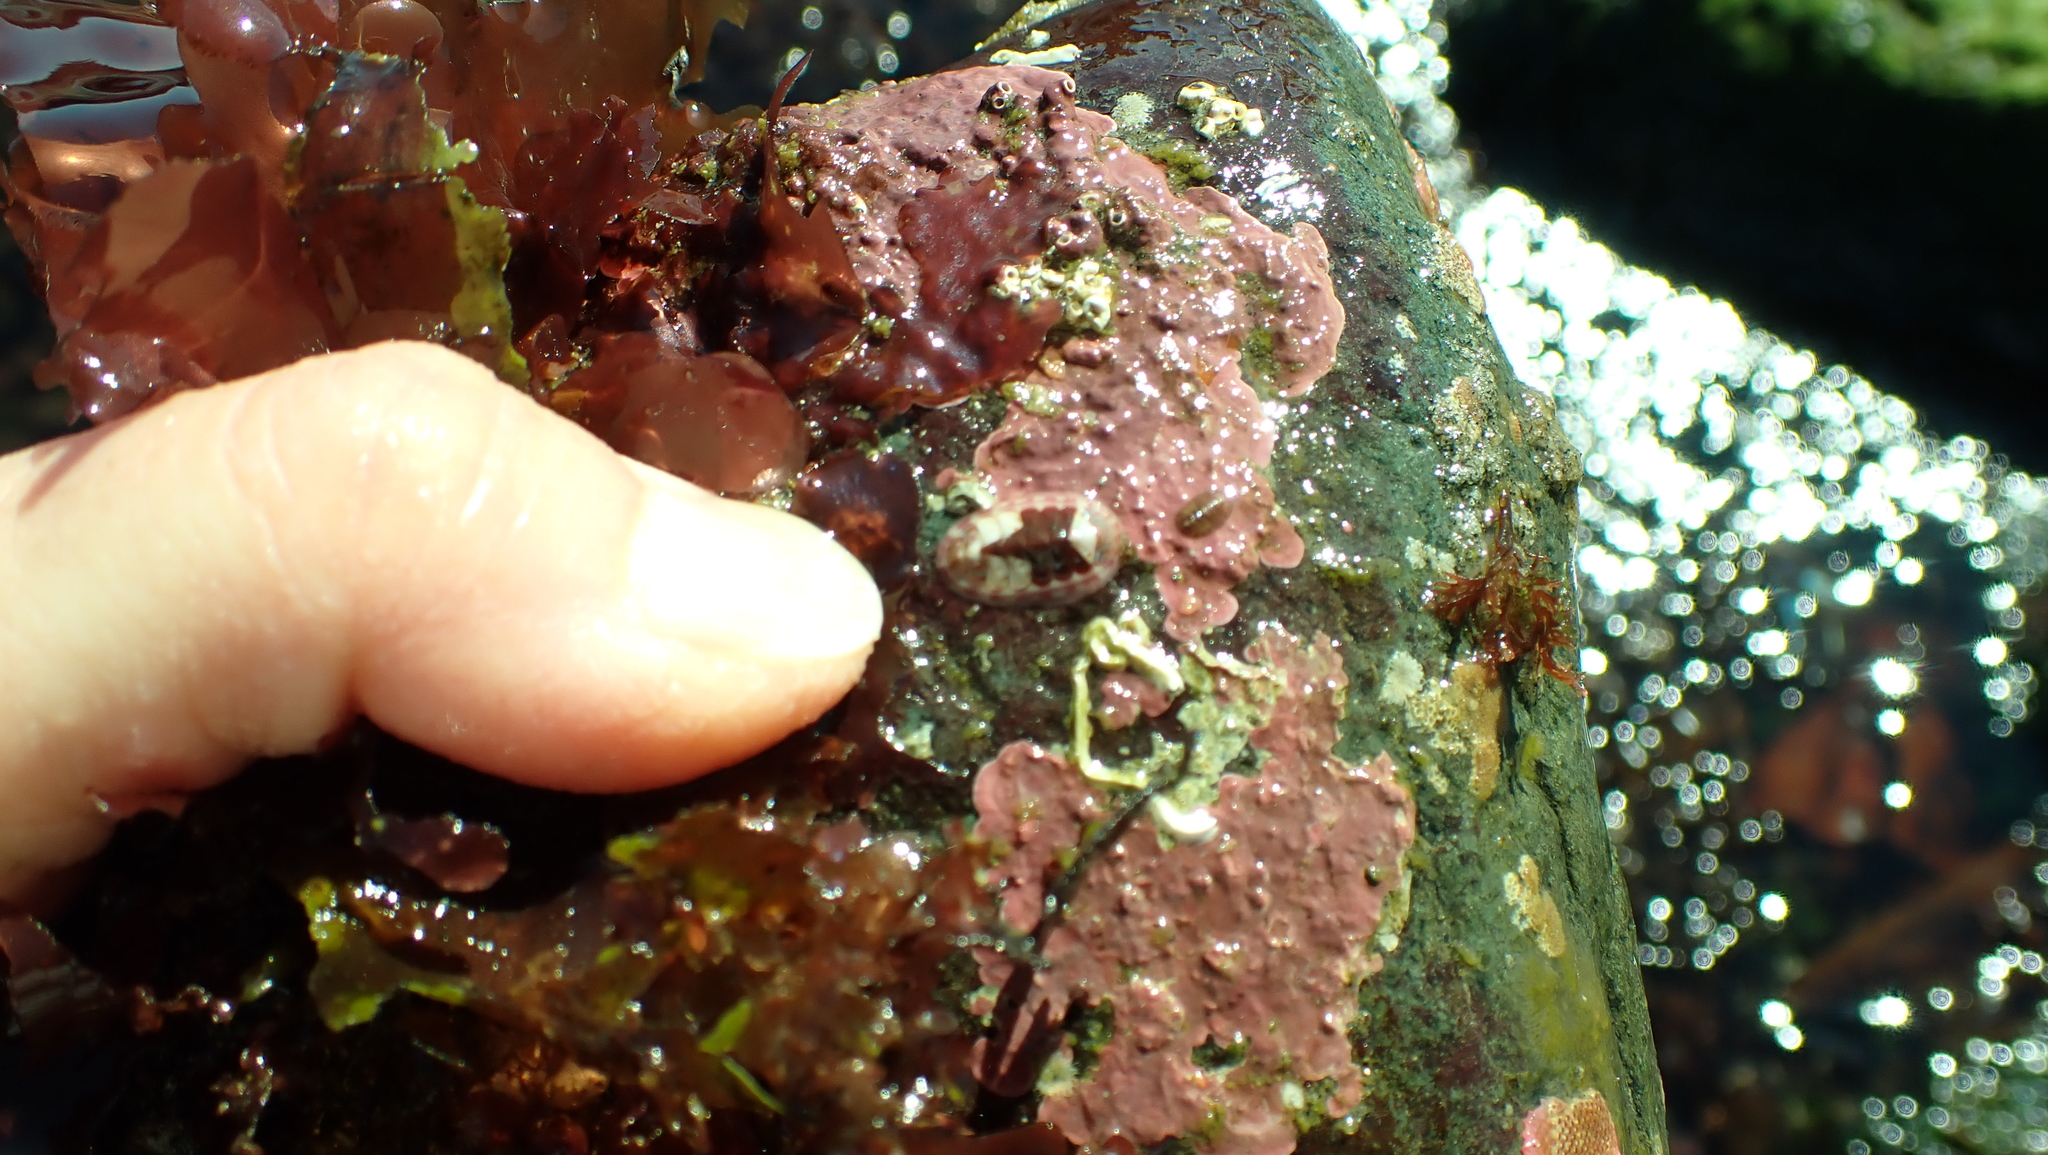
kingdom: Animalia
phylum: Mollusca
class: Polyplacophora
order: Chitonida
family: Tonicellidae
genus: Tonicella
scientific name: Tonicella undocaerulea
